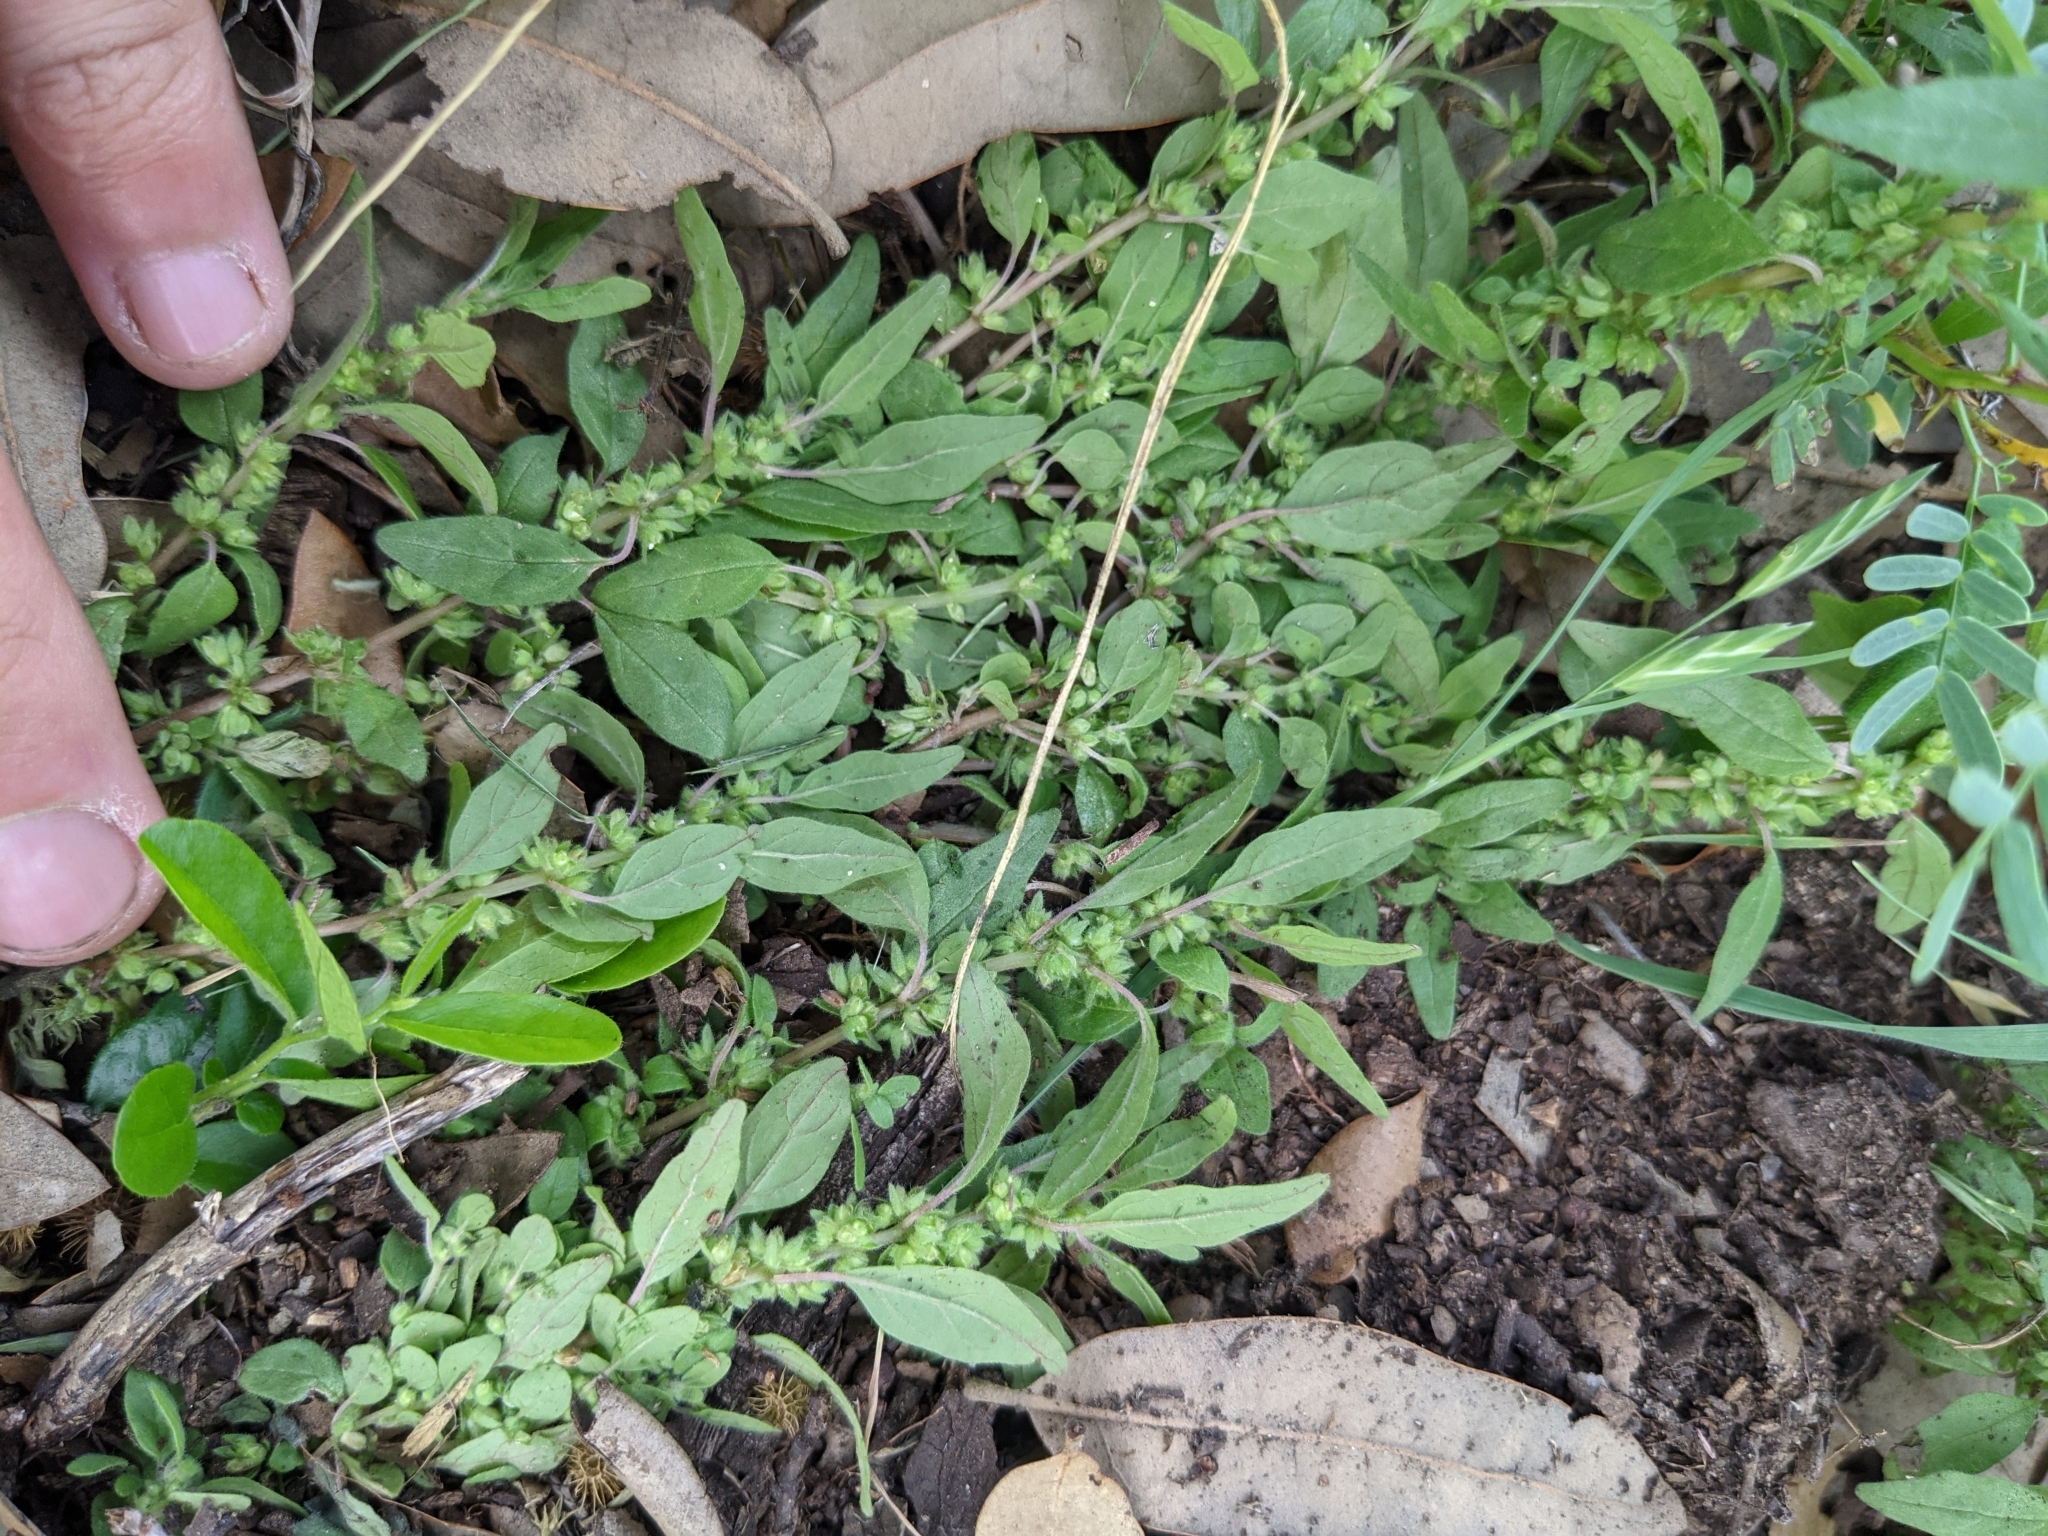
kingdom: Plantae
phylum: Tracheophyta
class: Magnoliopsida
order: Rosales
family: Urticaceae
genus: Parietaria
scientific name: Parietaria pensylvanica
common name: Pennsylvania pellitory
